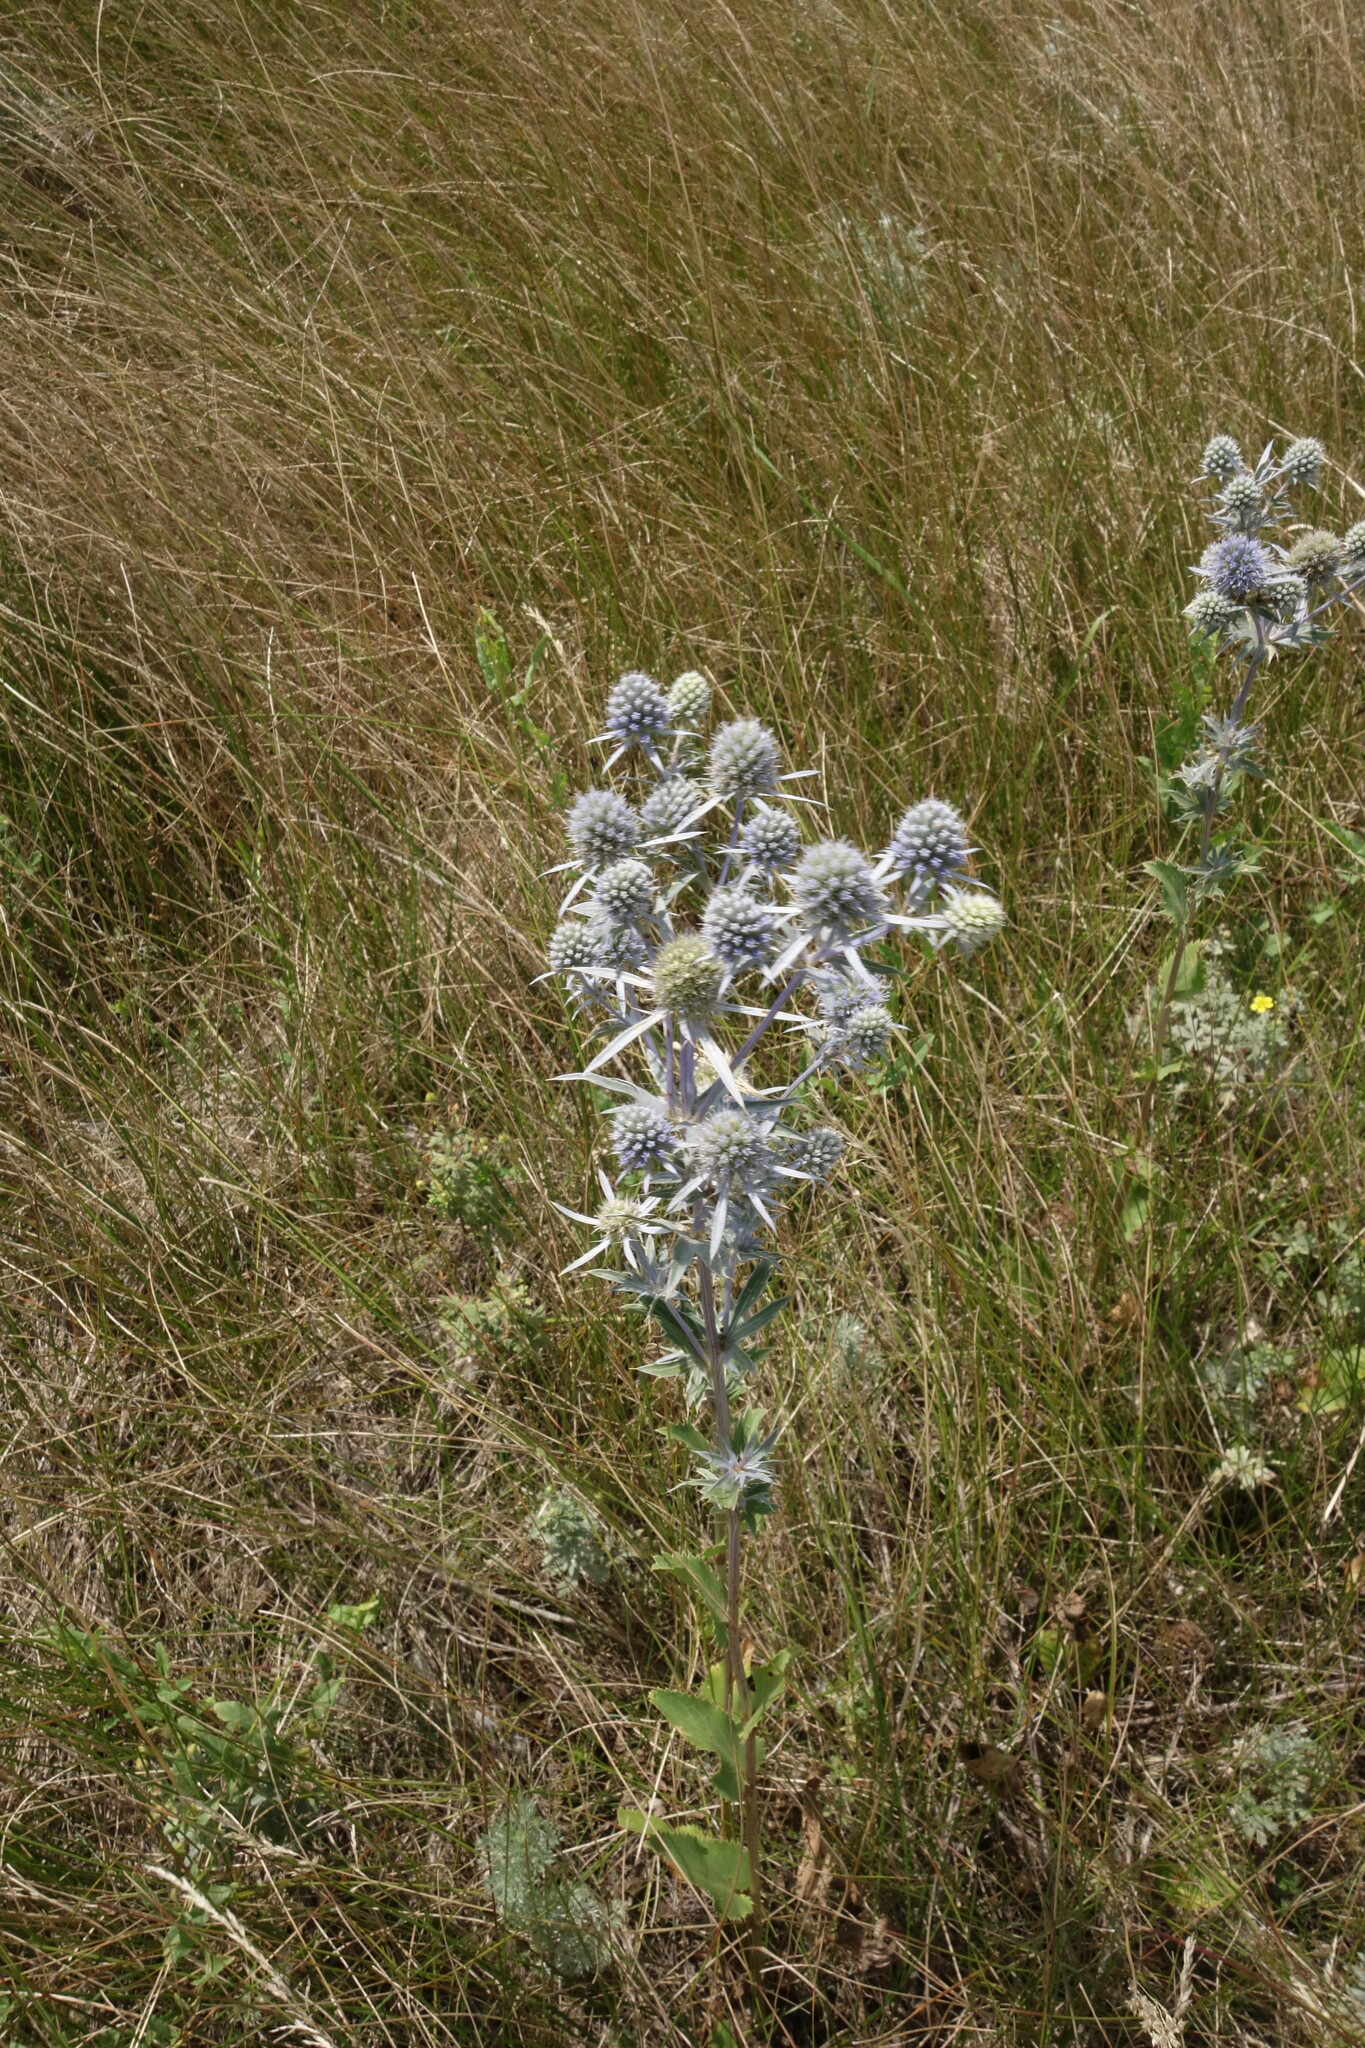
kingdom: Plantae
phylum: Tracheophyta
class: Magnoliopsida
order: Apiales
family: Apiaceae
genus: Eryngium
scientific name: Eryngium planum
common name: Blue eryngo
